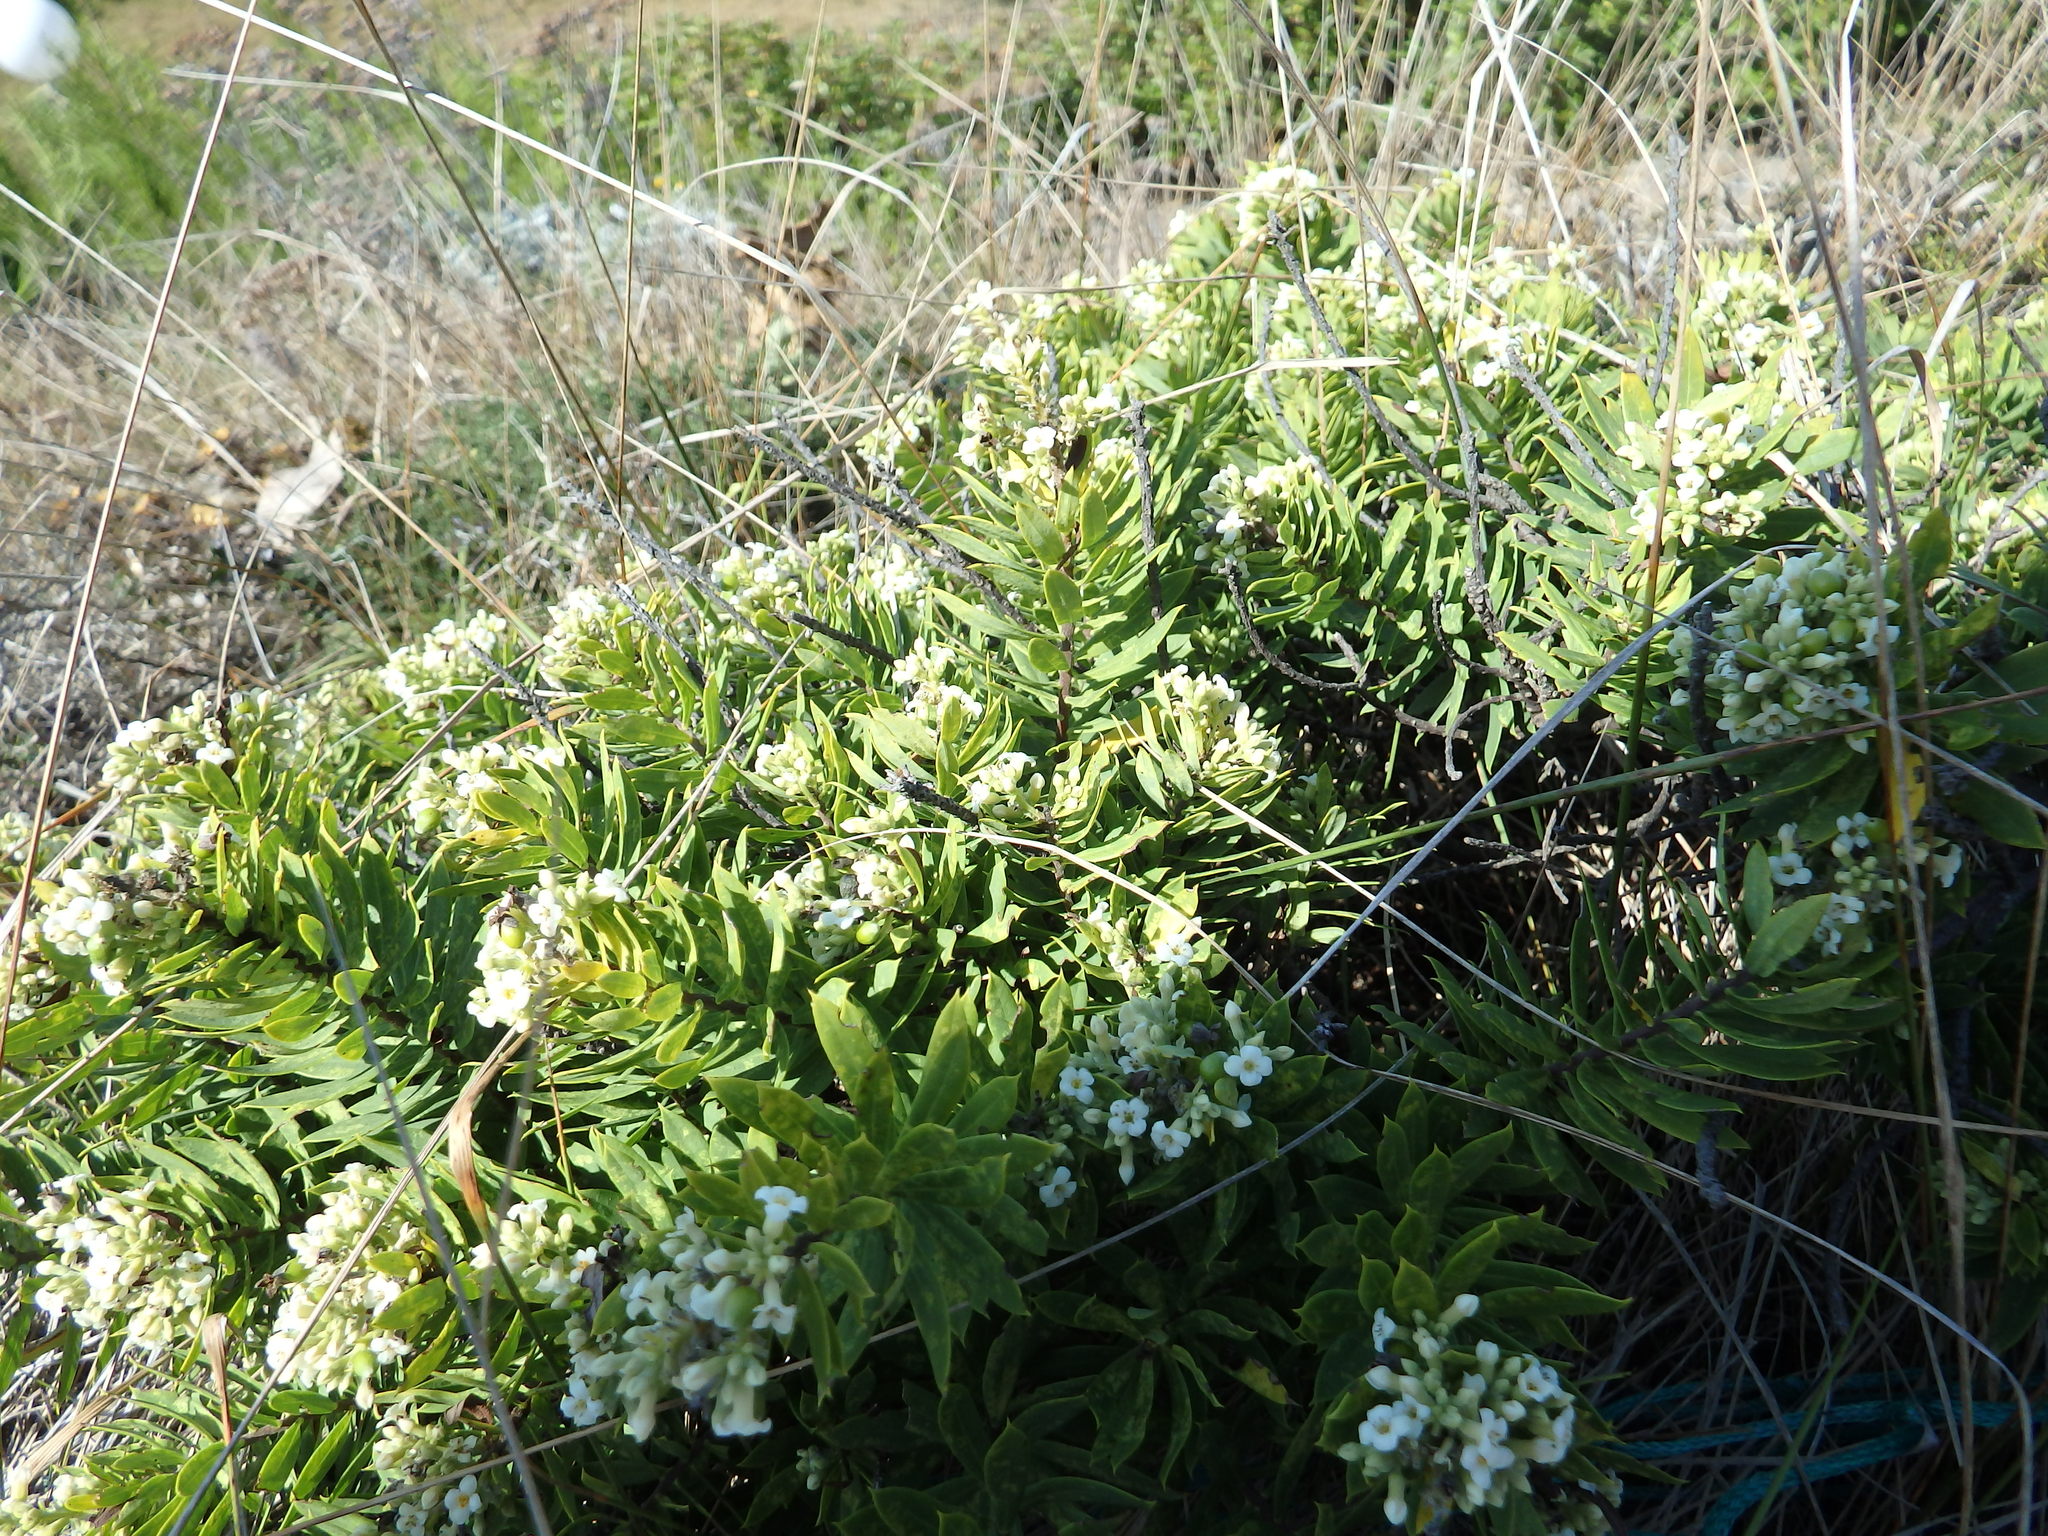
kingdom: Plantae
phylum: Tracheophyta
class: Magnoliopsida
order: Malvales
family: Thymelaeaceae
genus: Daphne
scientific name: Daphne gnidium
